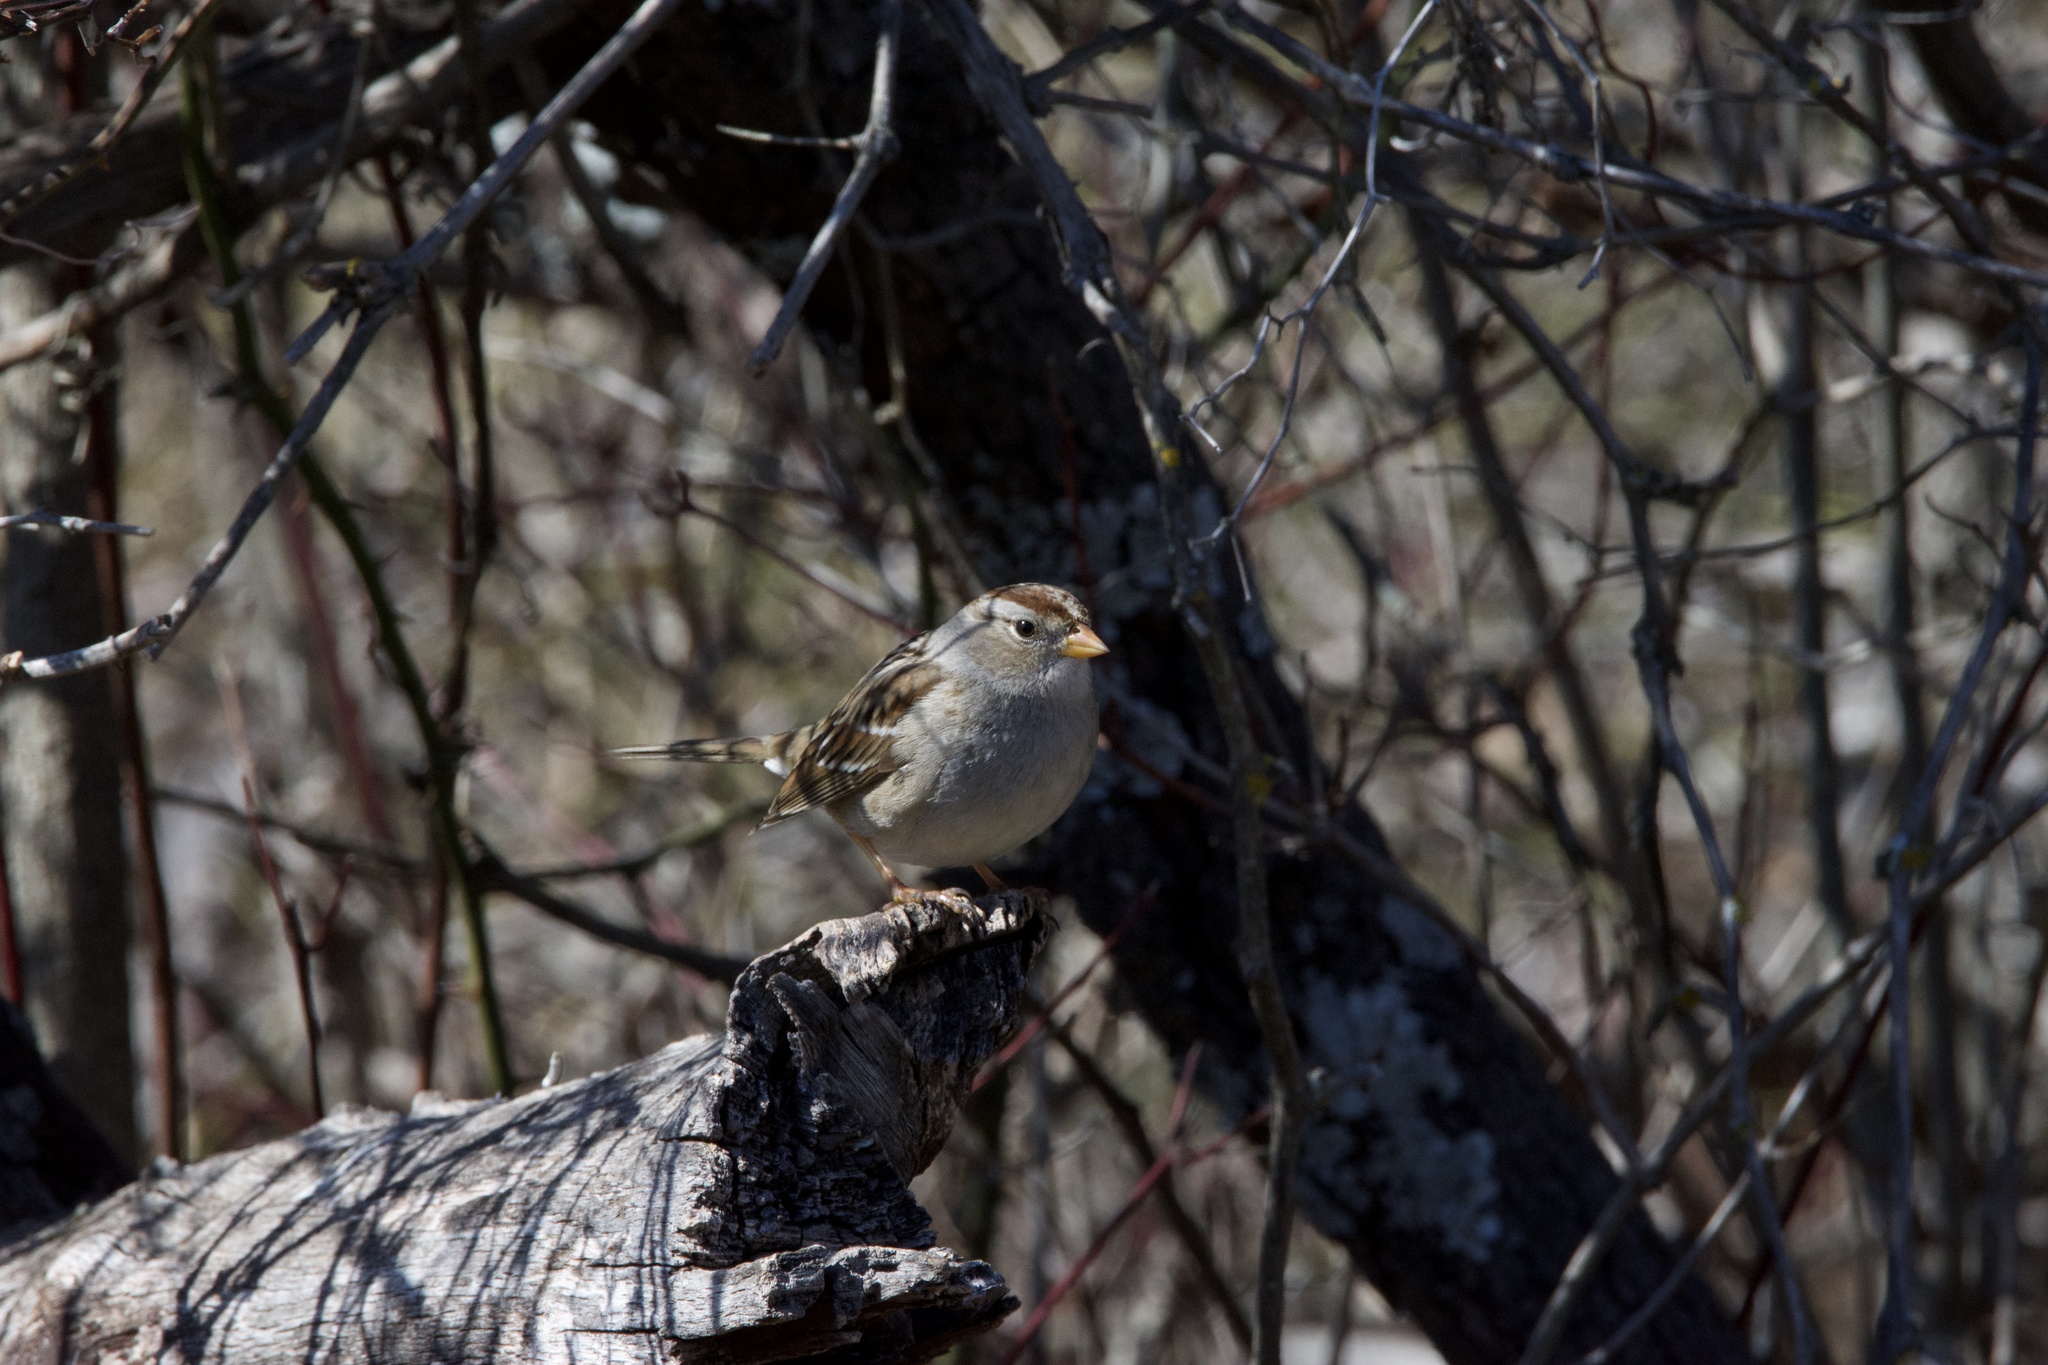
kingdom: Animalia
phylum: Chordata
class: Aves
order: Passeriformes
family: Passerellidae
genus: Zonotrichia
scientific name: Zonotrichia leucophrys
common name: White-crowned sparrow
